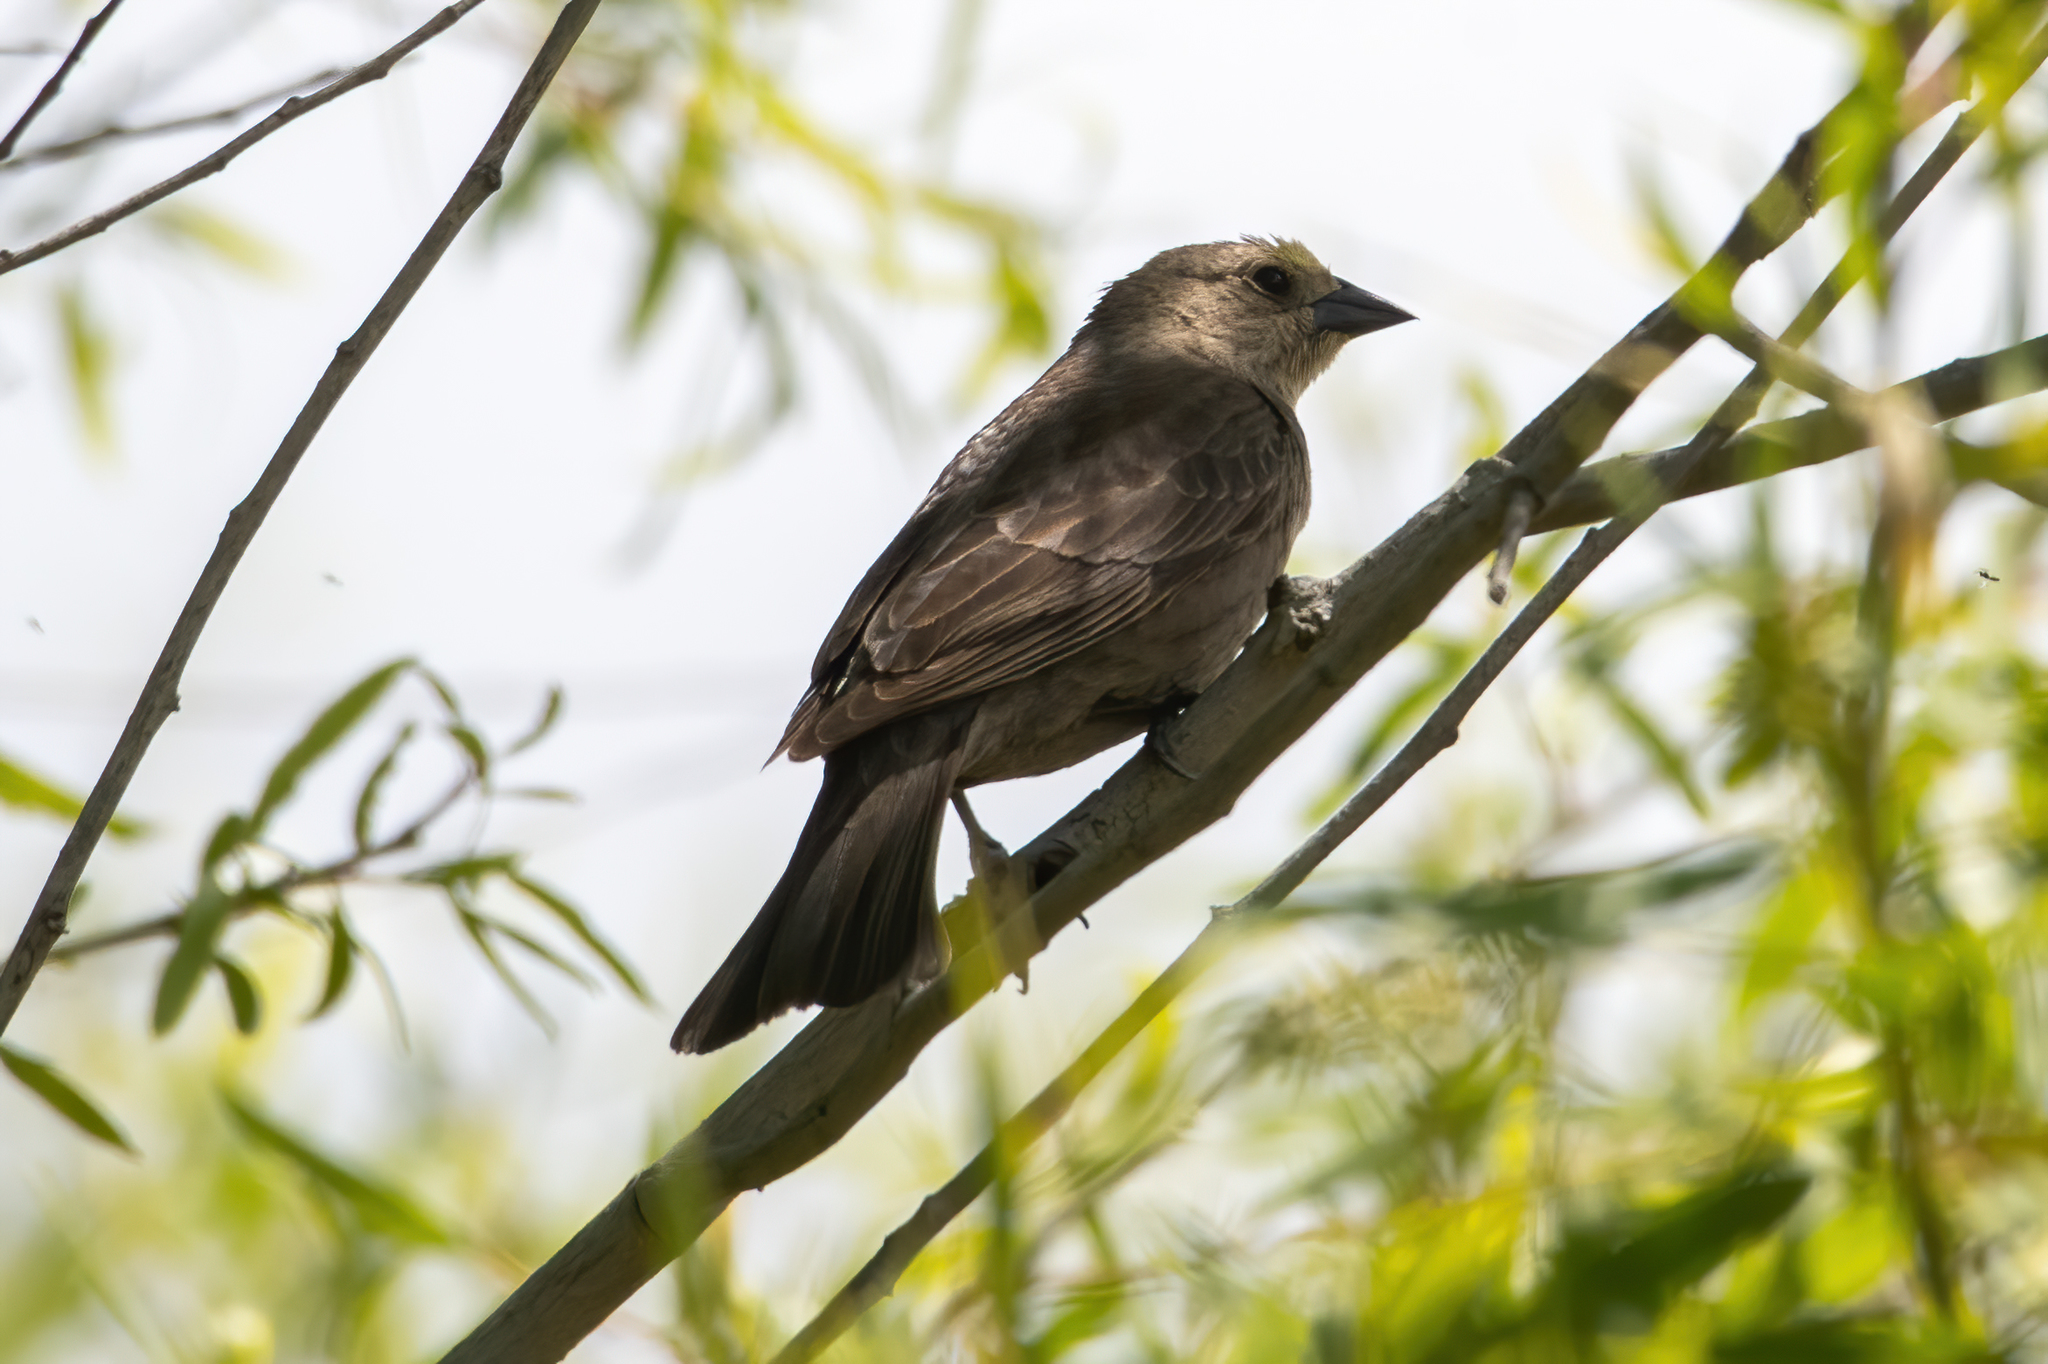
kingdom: Animalia
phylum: Chordata
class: Aves
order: Passeriformes
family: Icteridae
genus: Molothrus
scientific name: Molothrus ater
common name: Brown-headed cowbird
